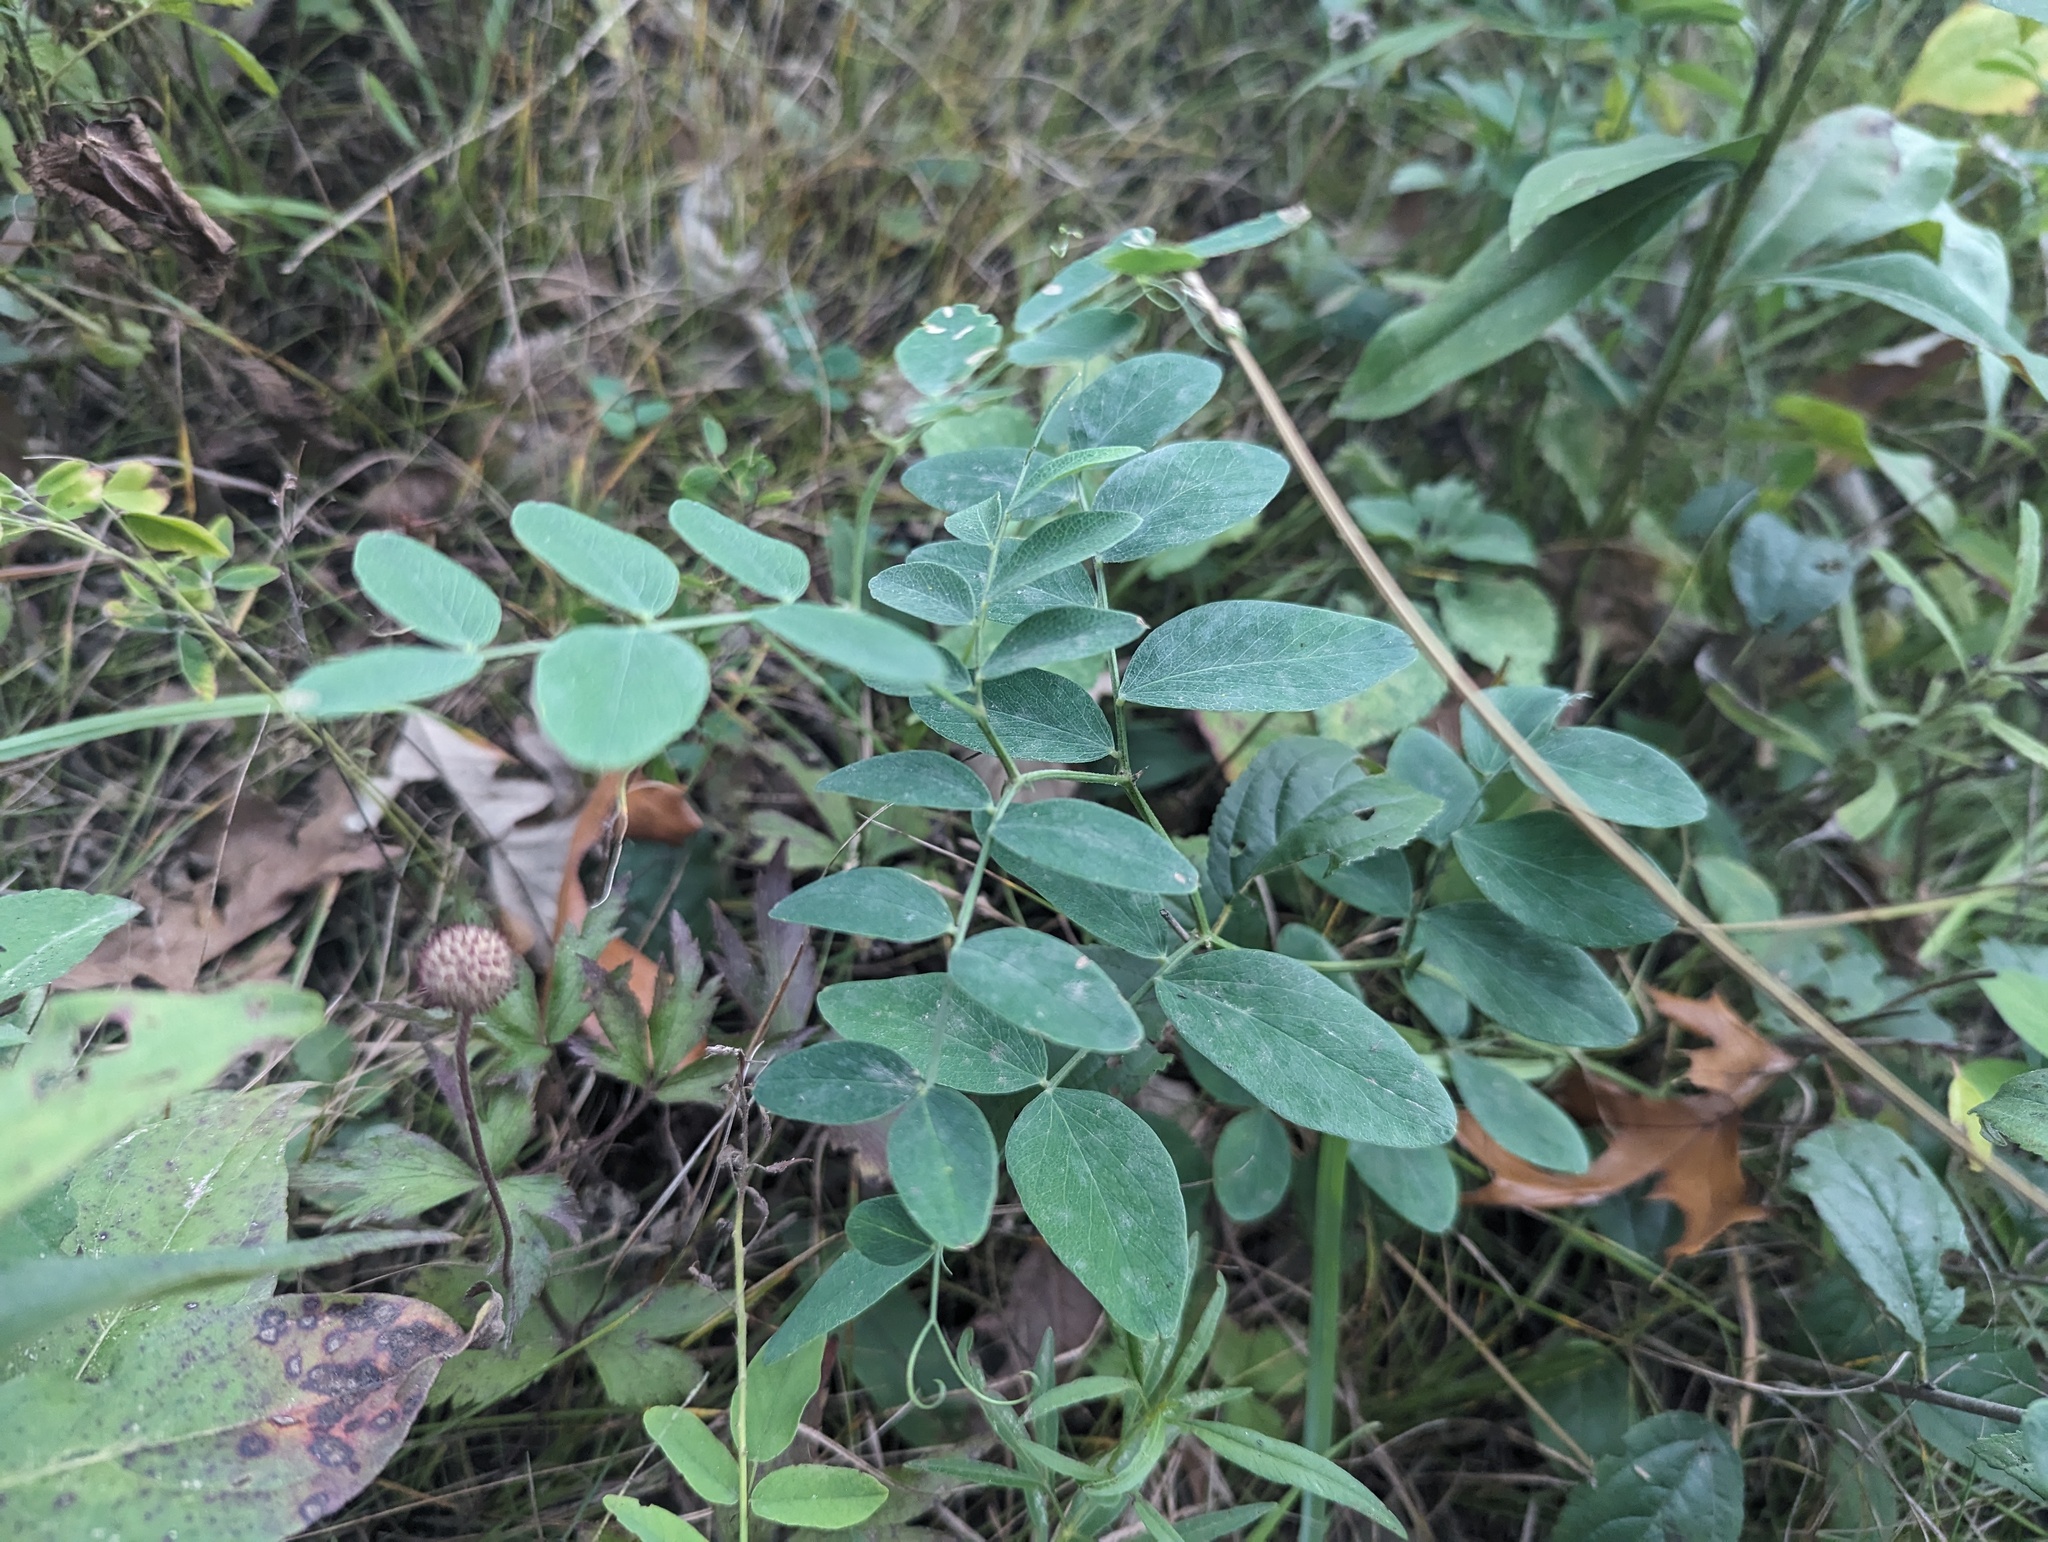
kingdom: Plantae
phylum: Tracheophyta
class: Magnoliopsida
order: Fabales
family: Fabaceae
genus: Lathyrus
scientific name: Lathyrus ochroleucus
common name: Pale vetchling
